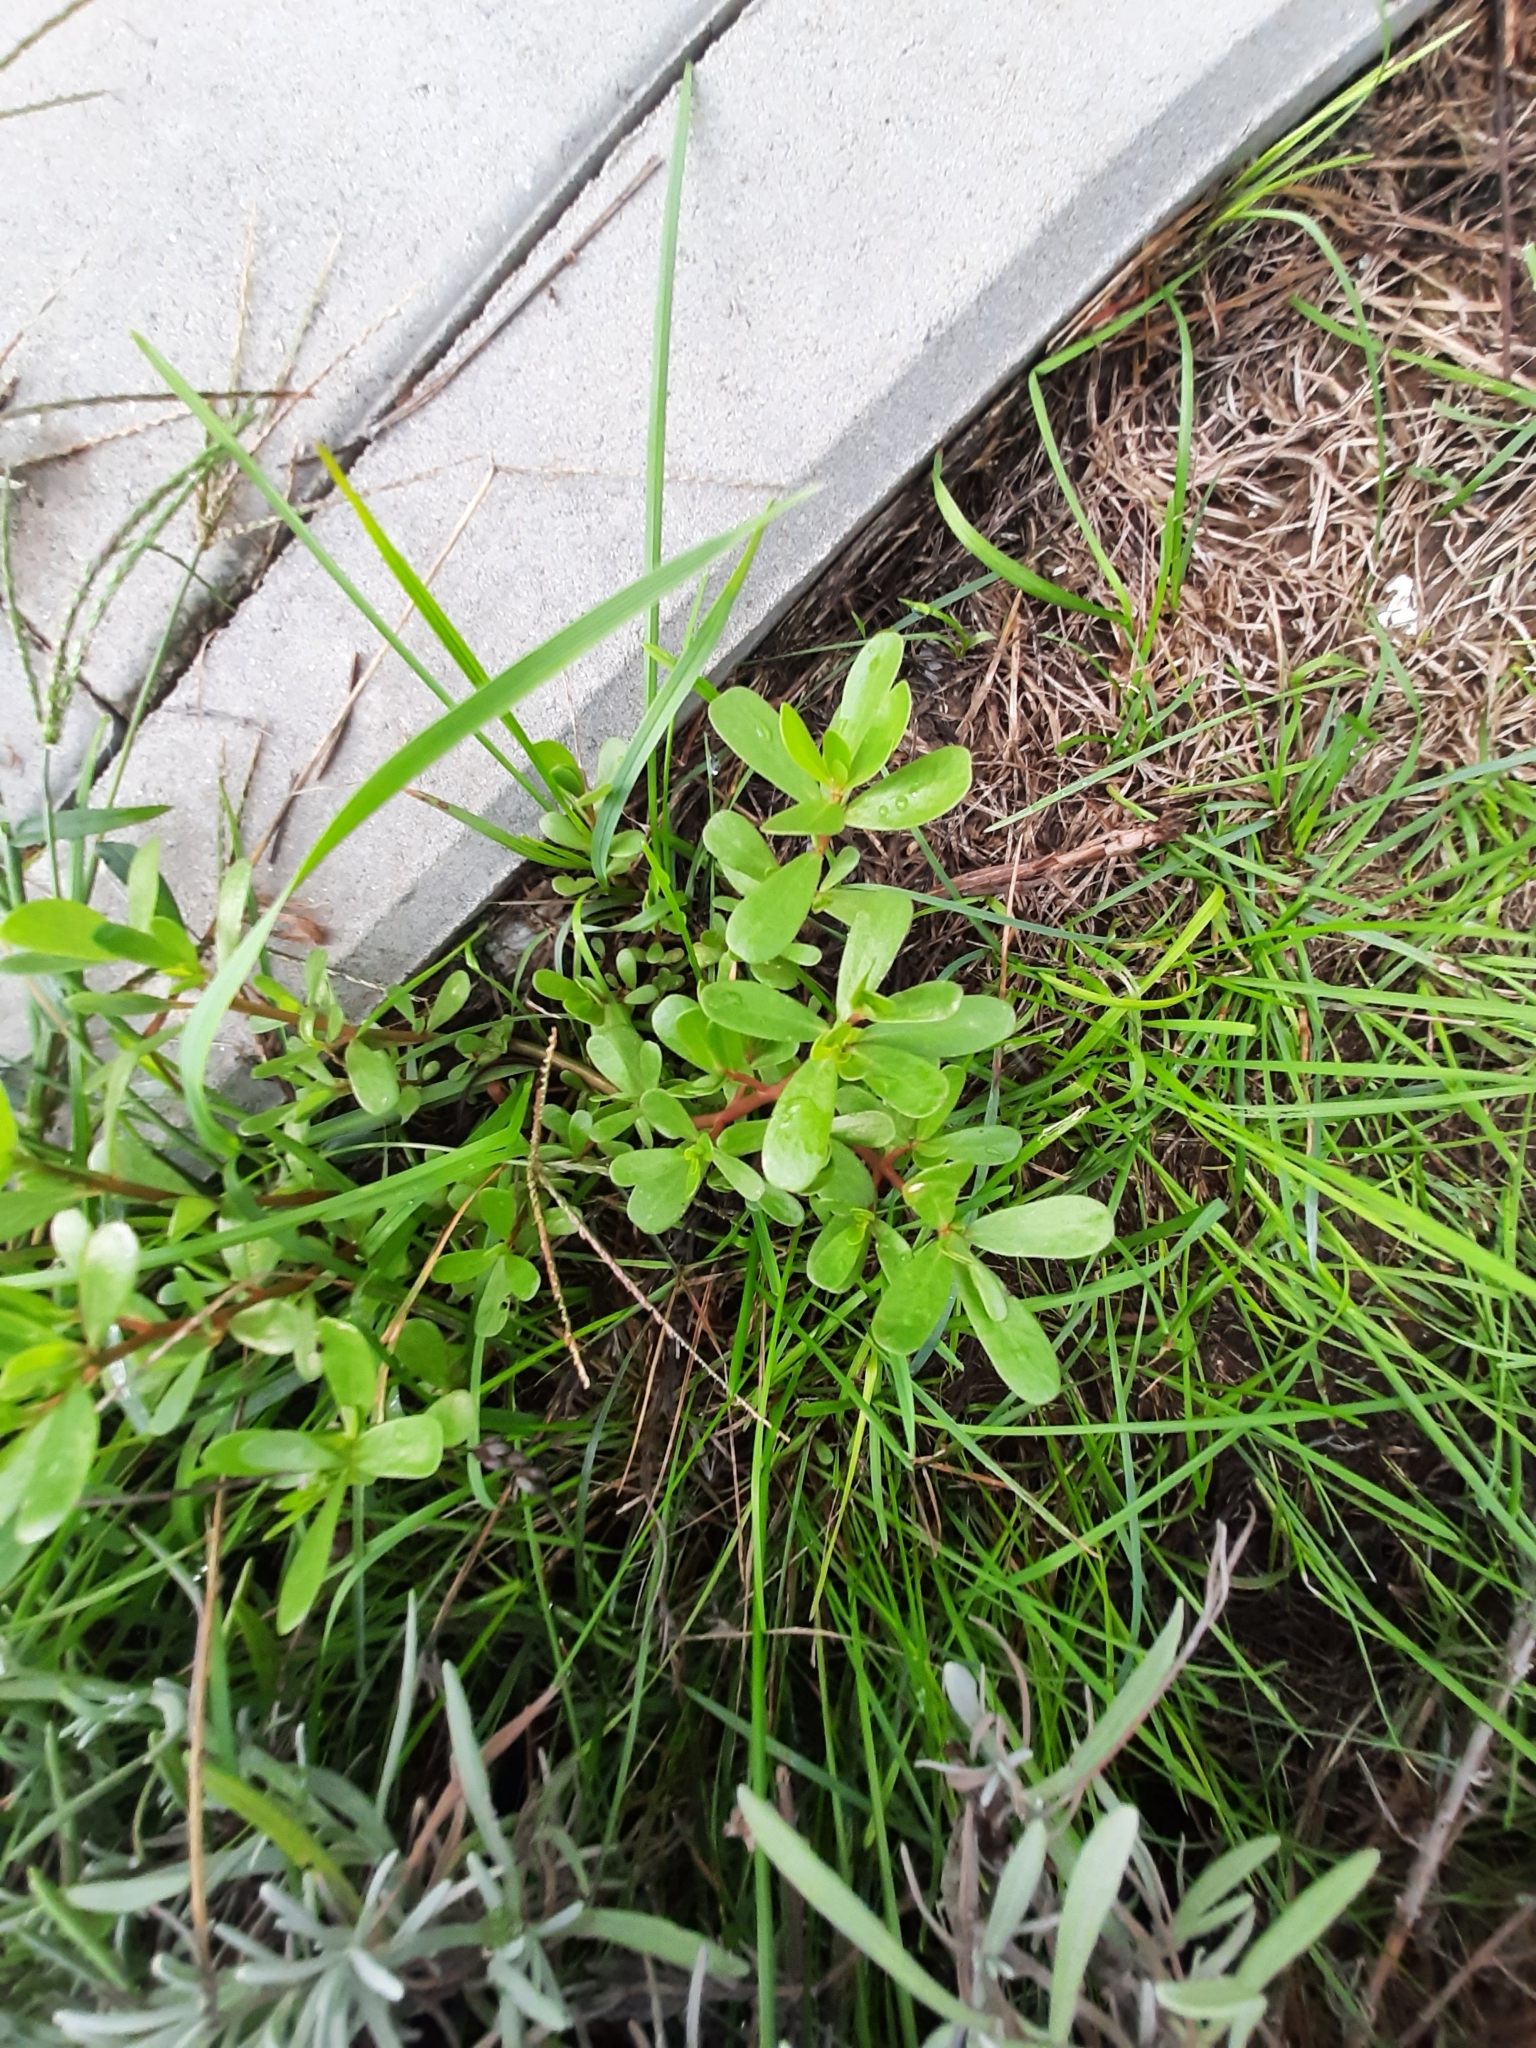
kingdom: Plantae
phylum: Tracheophyta
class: Magnoliopsida
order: Caryophyllales
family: Portulacaceae
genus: Portulaca
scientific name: Portulaca oleracea
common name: Common purslane
